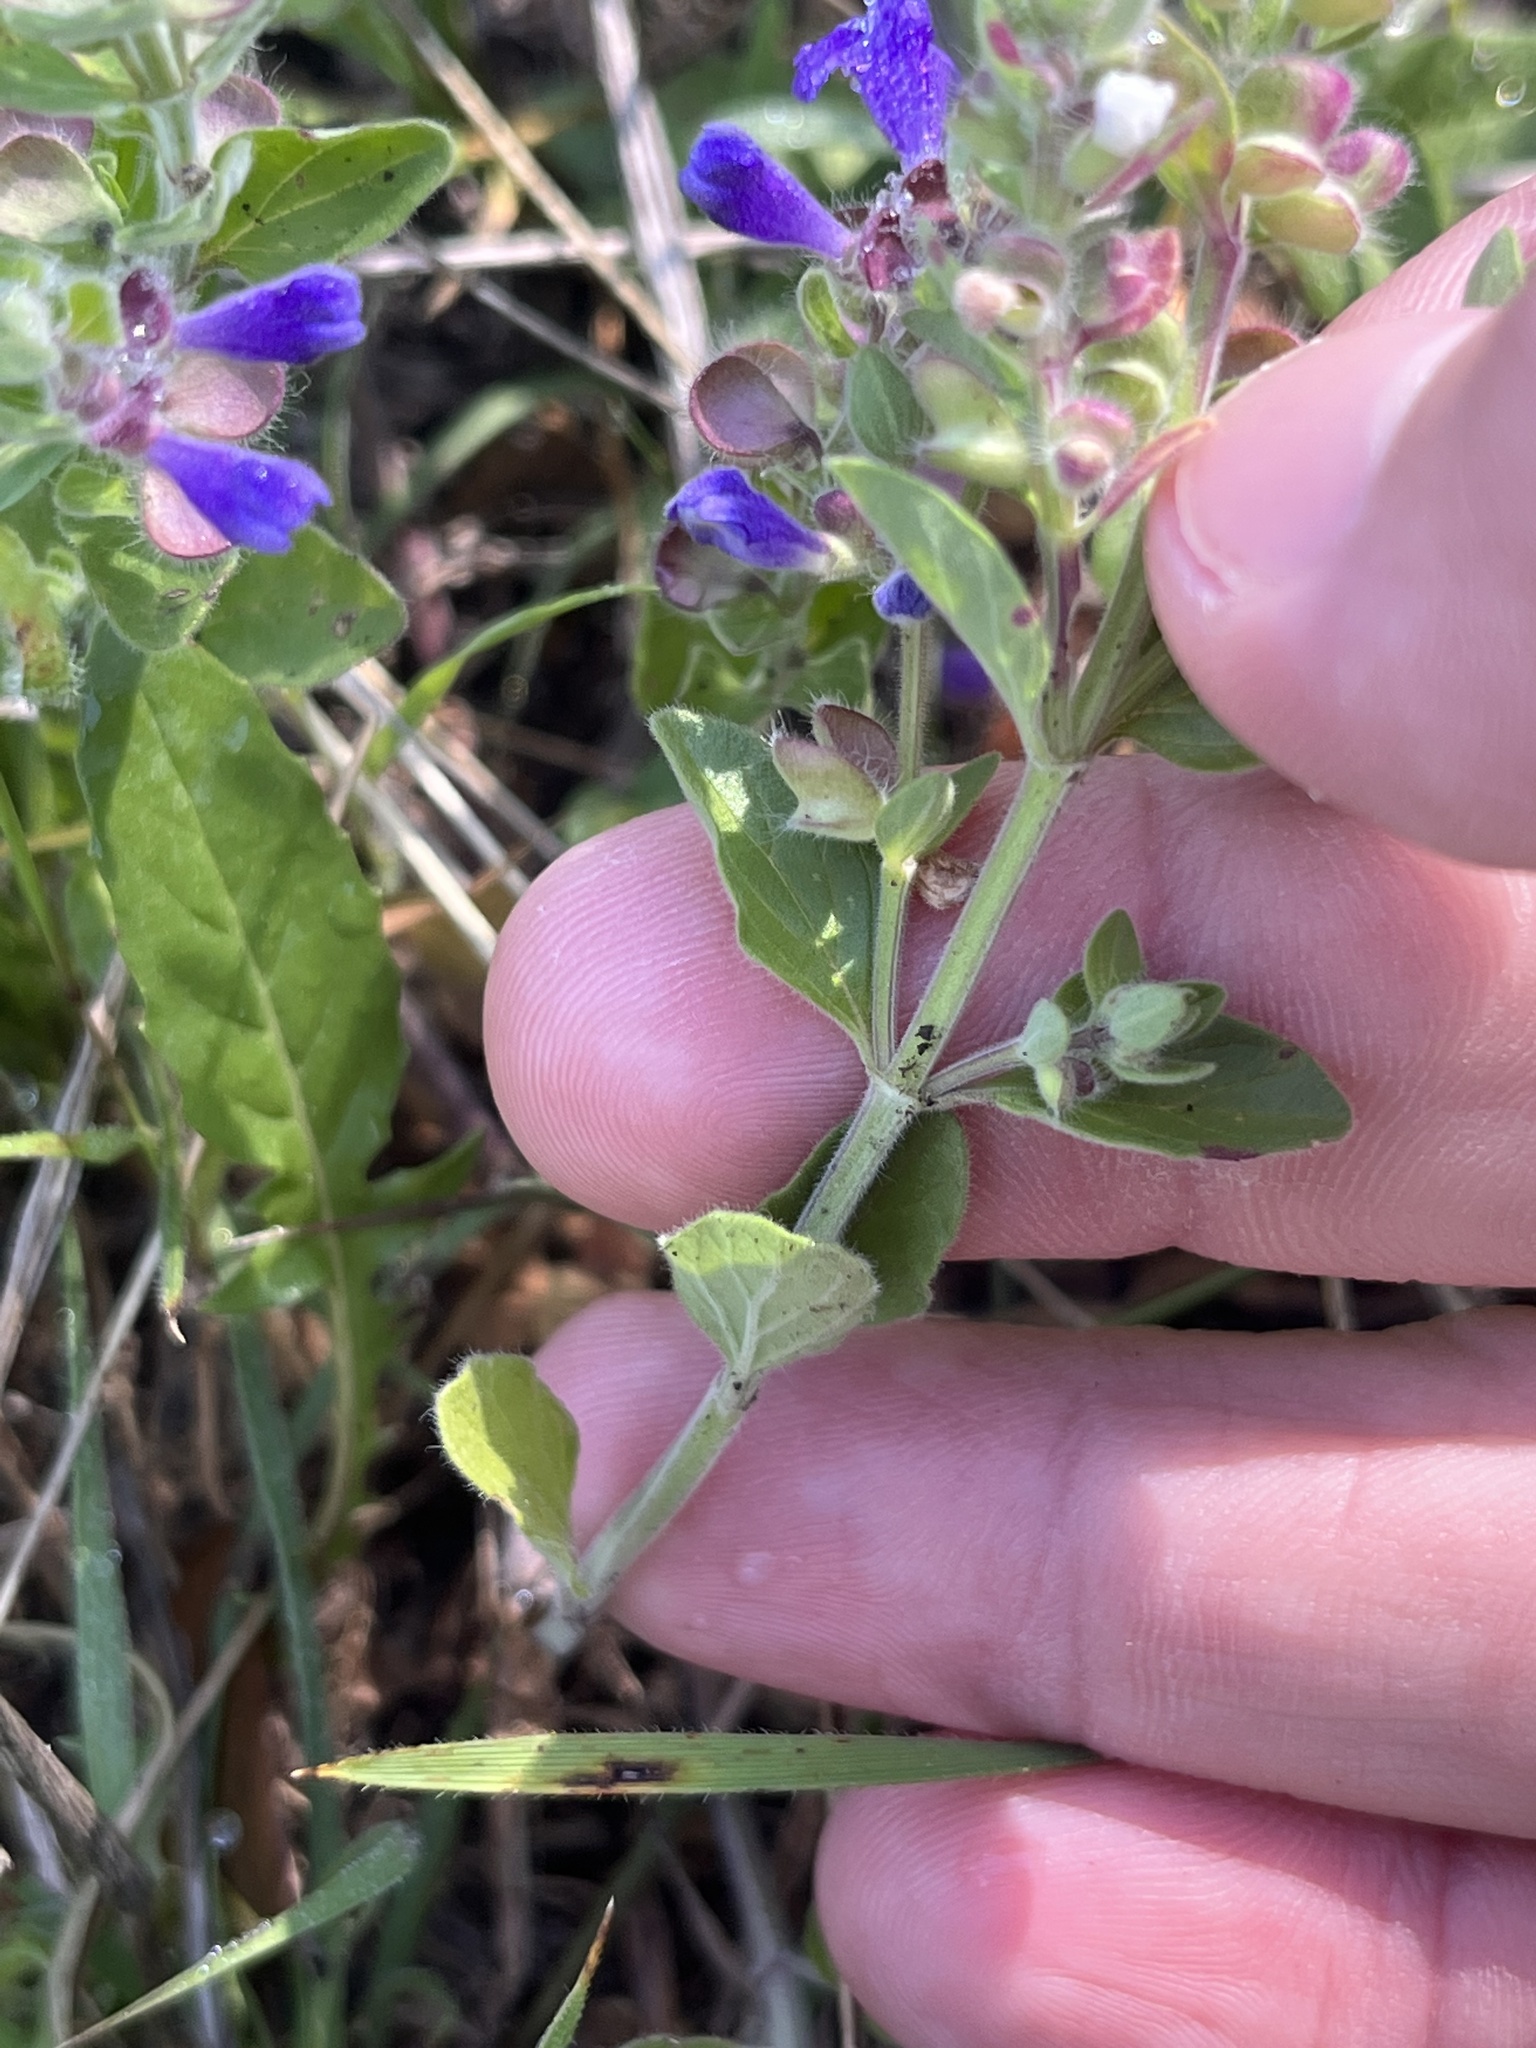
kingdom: Plantae
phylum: Tracheophyta
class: Magnoliopsida
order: Lamiales
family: Lamiaceae
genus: Scutellaria
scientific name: Scutellaria drummondii
